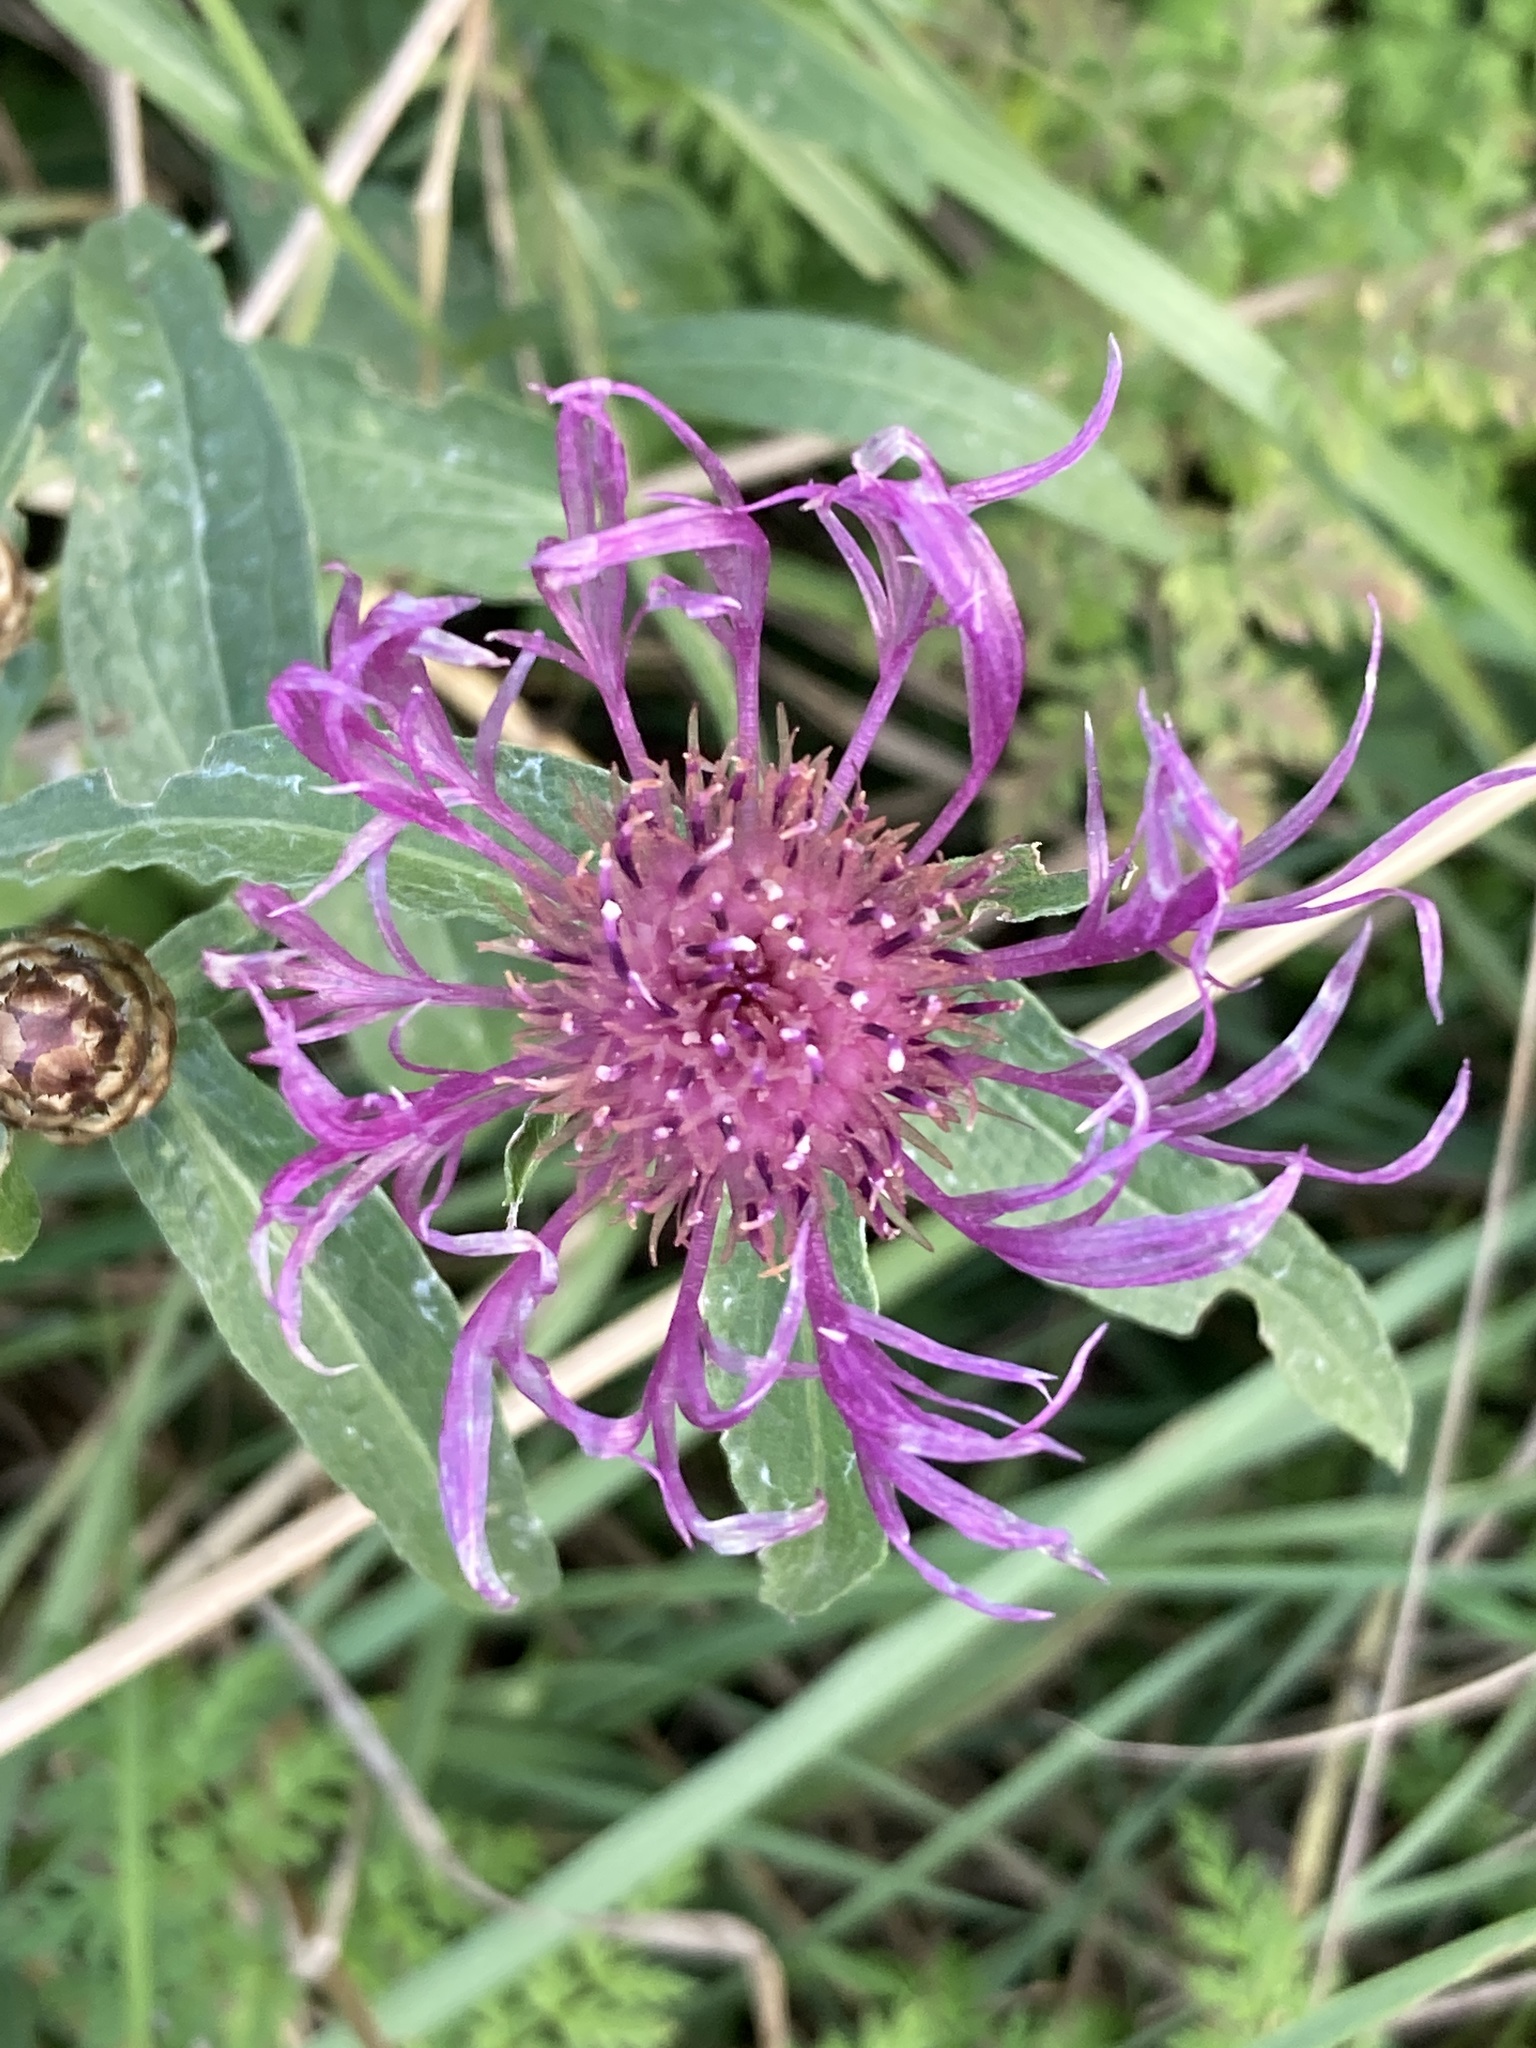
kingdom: Plantae
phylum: Tracheophyta
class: Magnoliopsida
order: Asterales
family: Asteraceae
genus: Centaurea
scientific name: Centaurea jacea
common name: Brown knapweed
